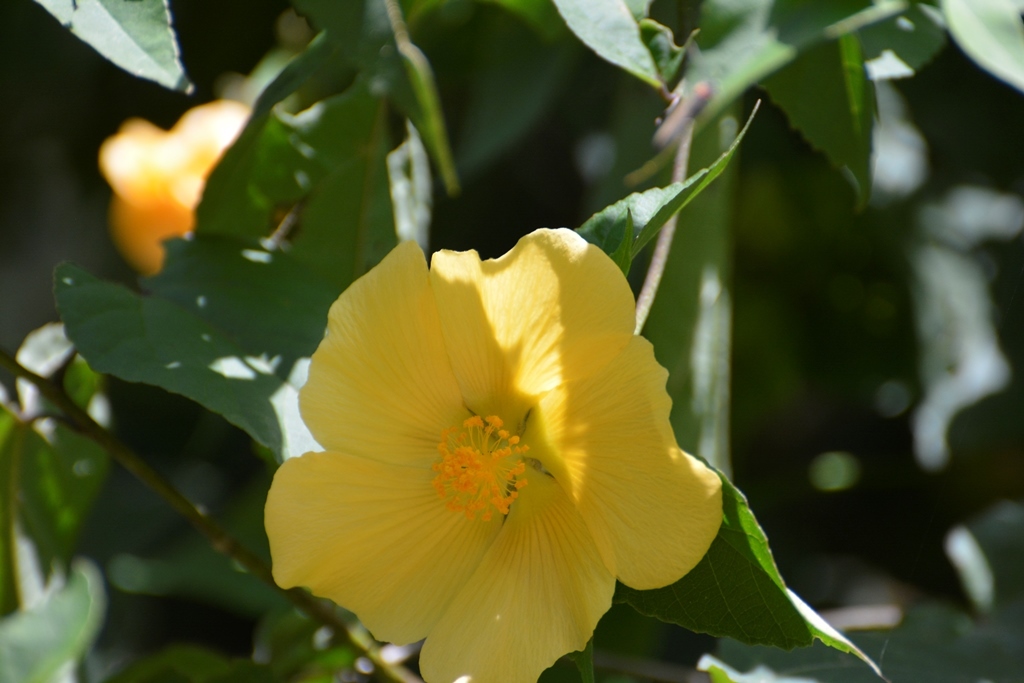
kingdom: Plantae
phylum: Tracheophyta
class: Magnoliopsida
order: Malvales
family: Malvaceae
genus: Dendrosida
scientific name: Dendrosida sharpiana
